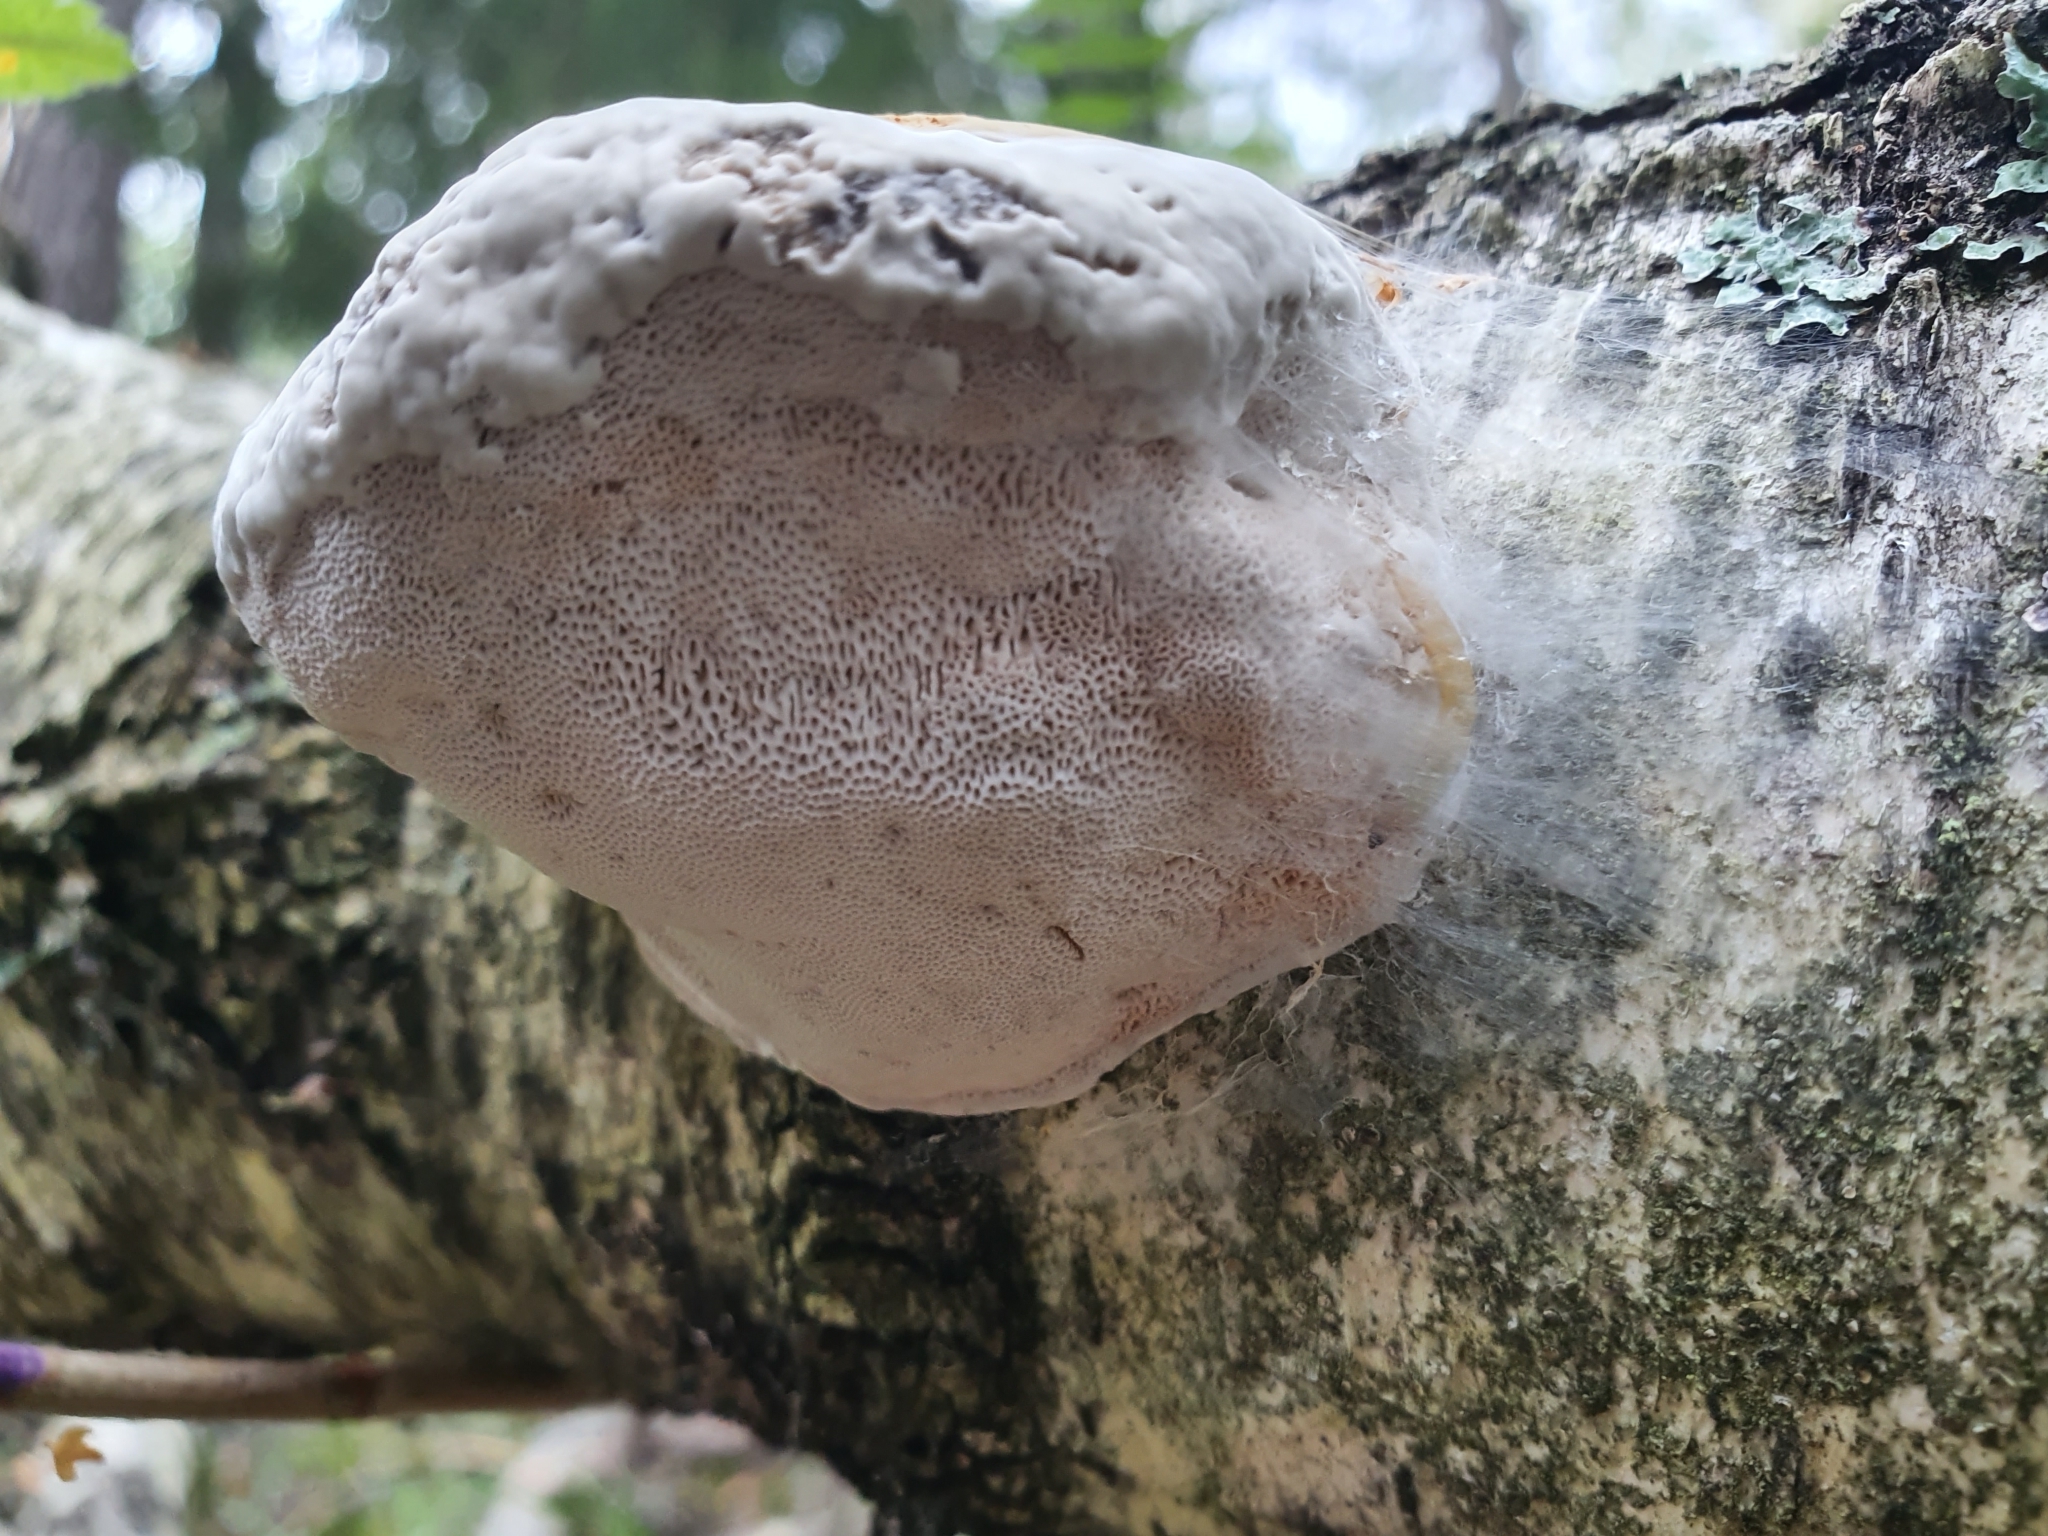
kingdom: Fungi
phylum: Basidiomycota
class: Agaricomycetes
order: Polyporales
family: Fomitopsidaceae
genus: Fomitopsis
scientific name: Fomitopsis betulina
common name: Birch polypore
